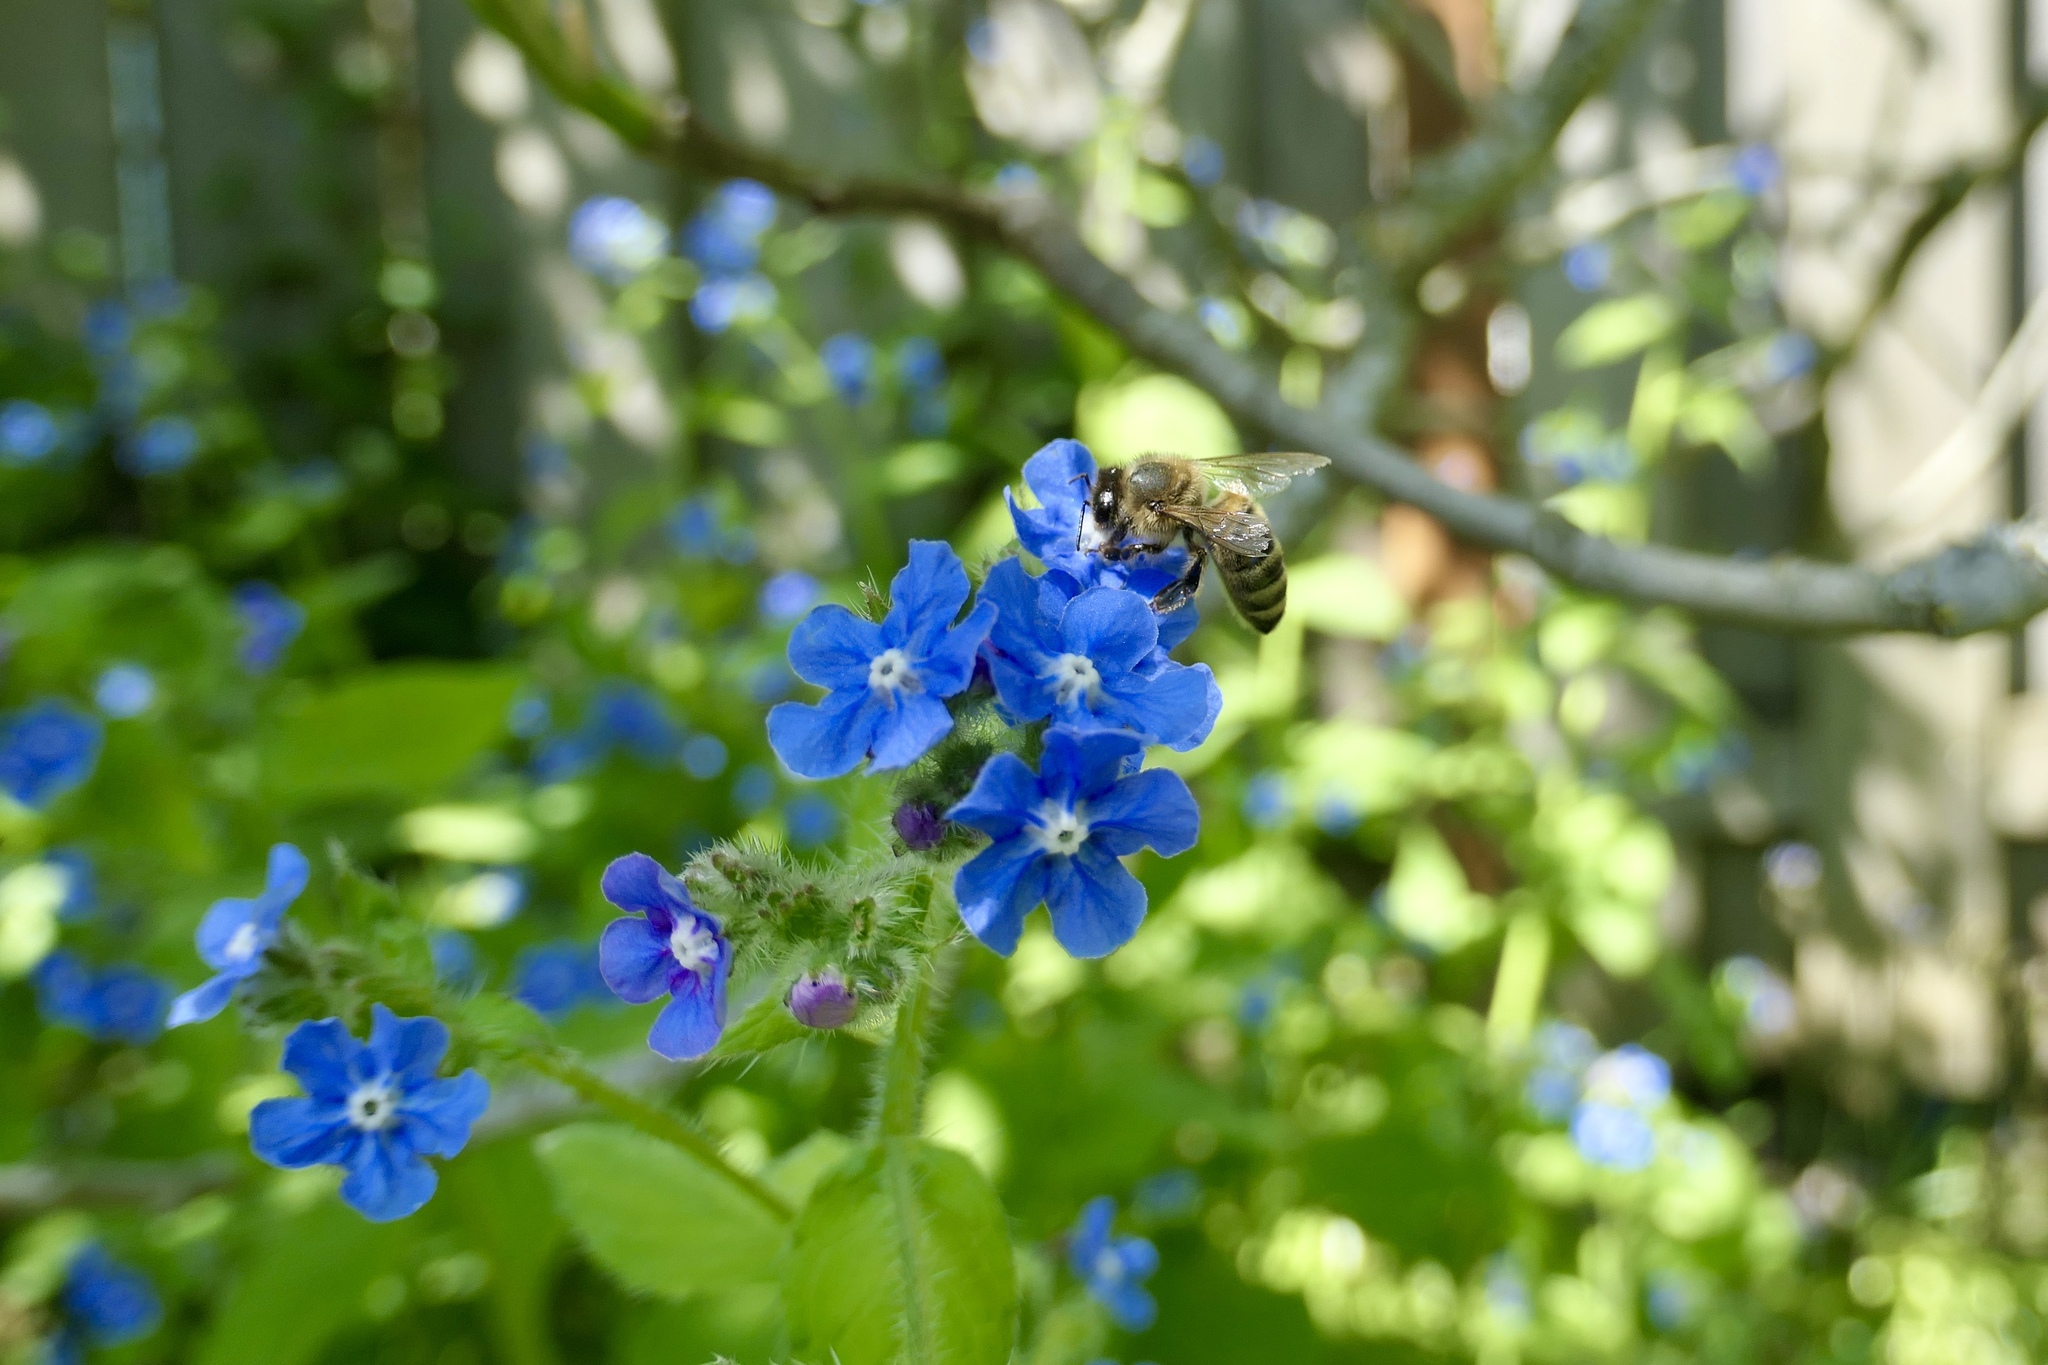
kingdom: Animalia
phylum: Arthropoda
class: Insecta
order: Hymenoptera
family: Apidae
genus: Apis
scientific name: Apis mellifera
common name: Honey bee
